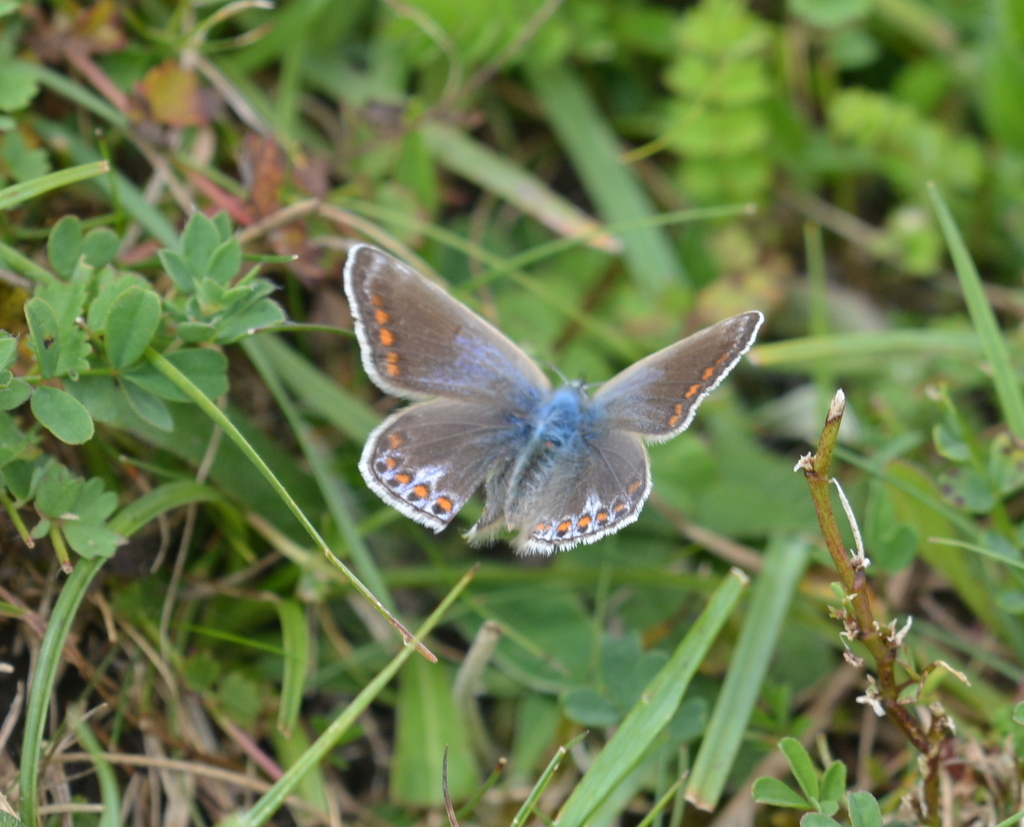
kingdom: Animalia
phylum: Arthropoda
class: Insecta
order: Lepidoptera
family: Lycaenidae
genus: Polyommatus
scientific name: Polyommatus icarus
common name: Common blue
